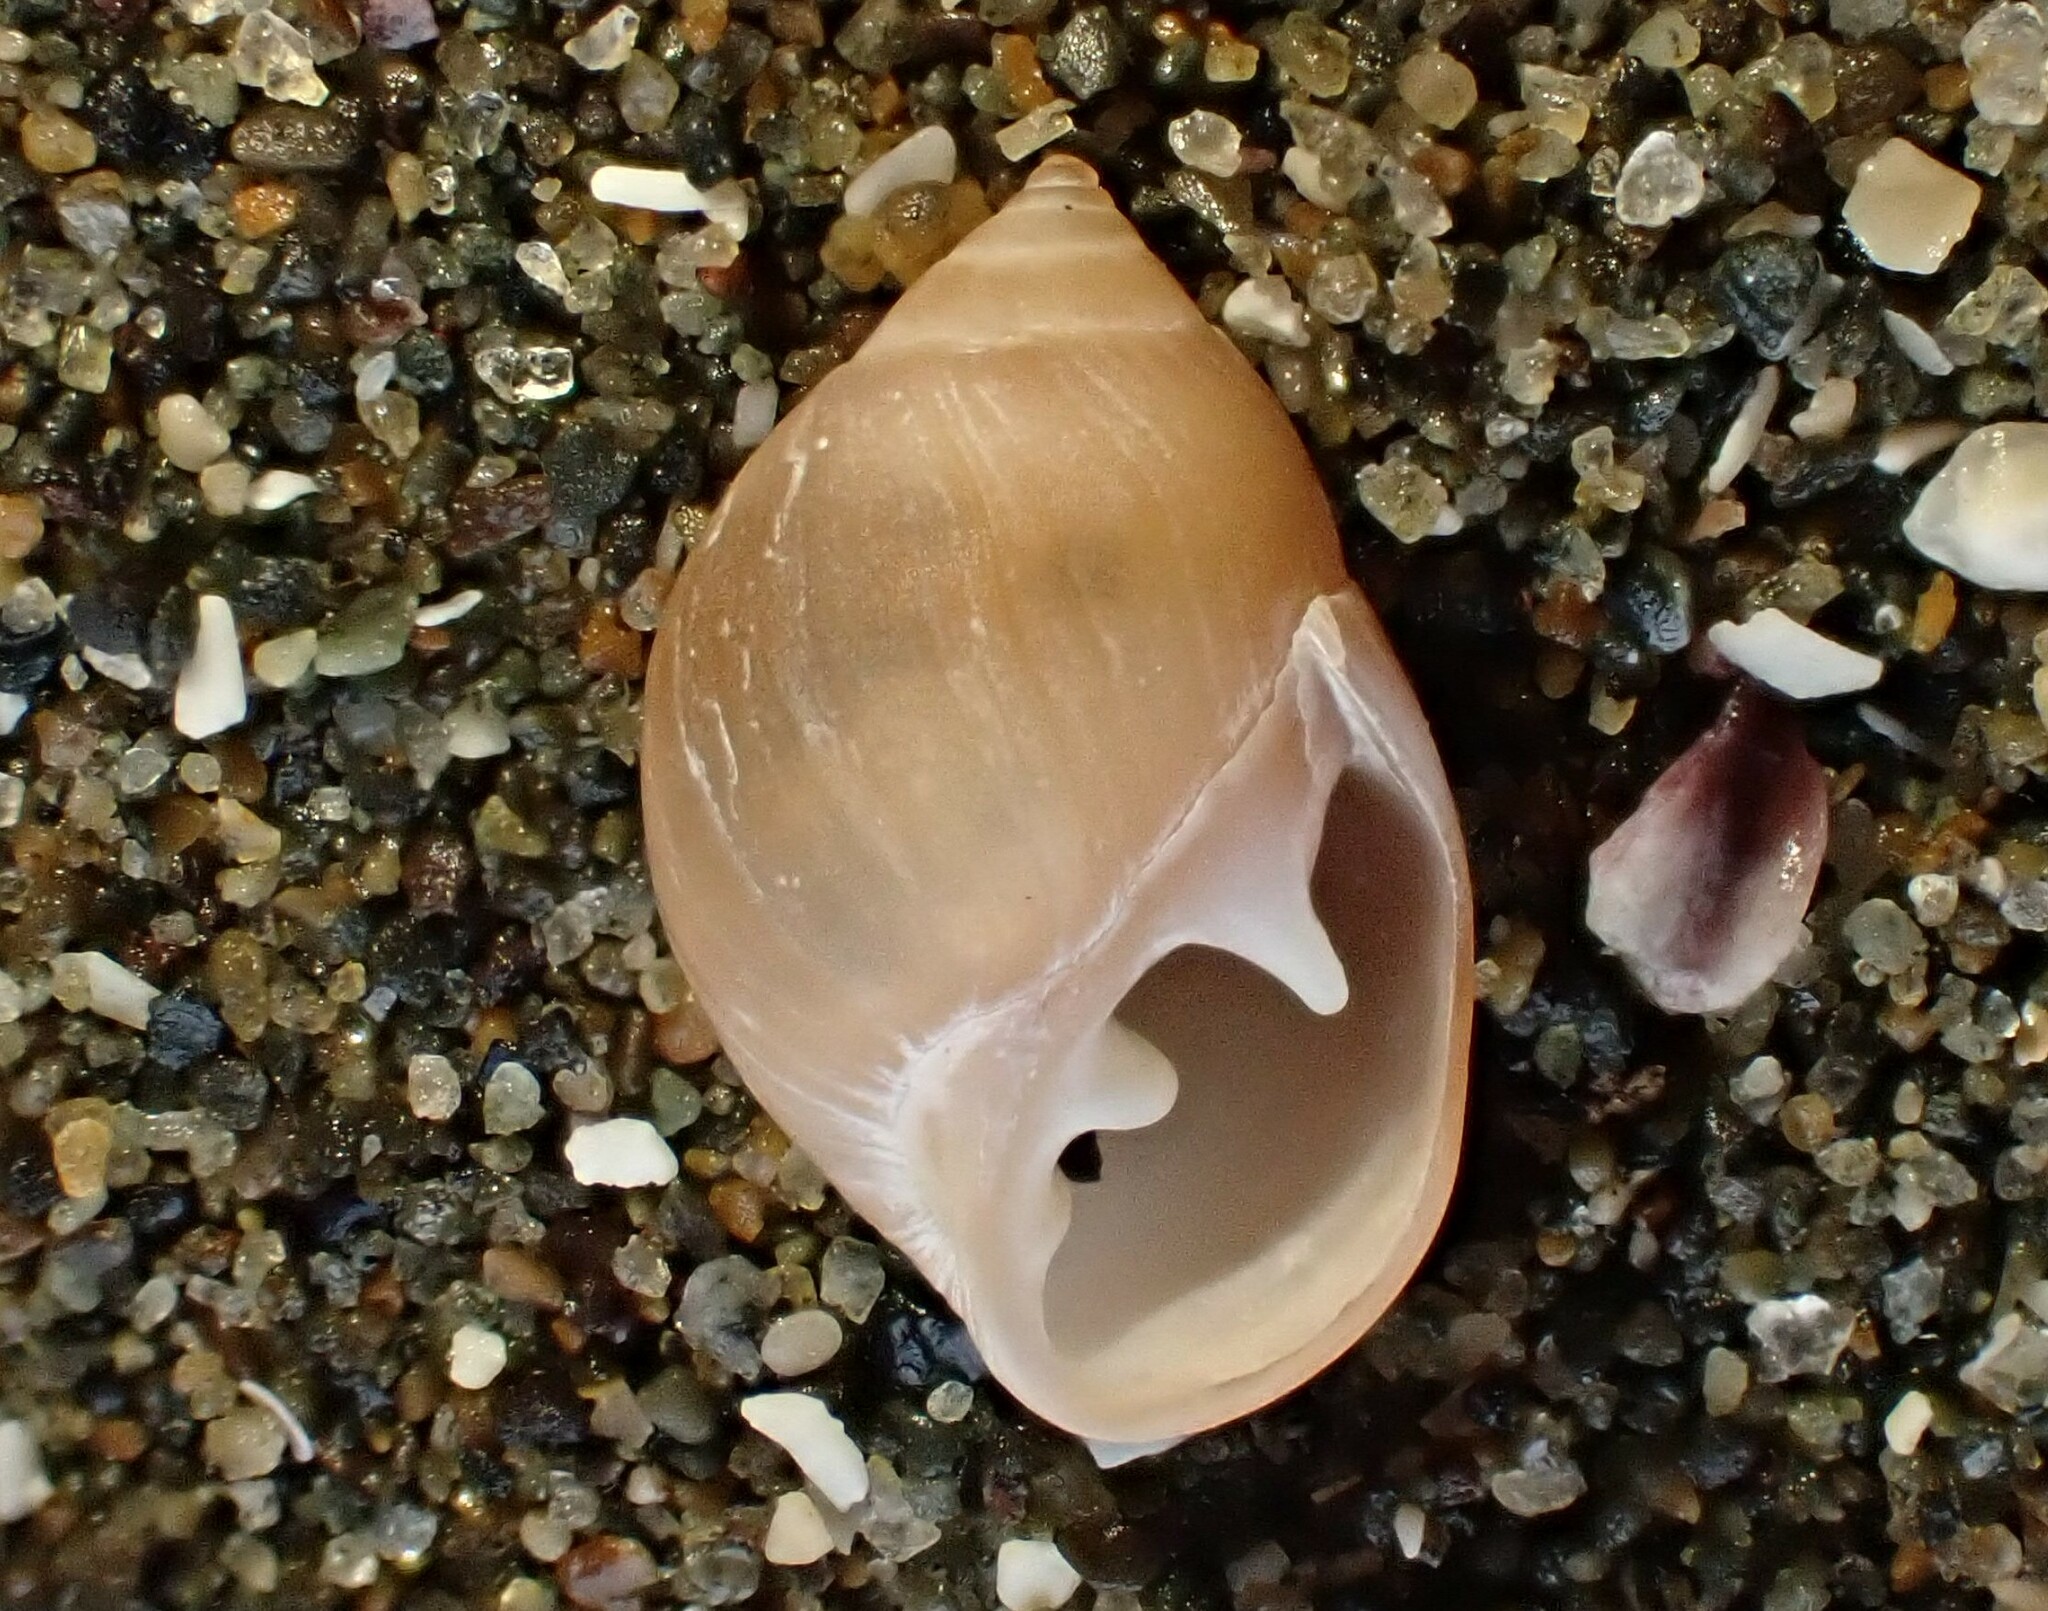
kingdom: Animalia
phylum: Mollusca
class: Gastropoda
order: Ellobiida
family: Ellobiidae
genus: Marinula
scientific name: Marinula filholi
